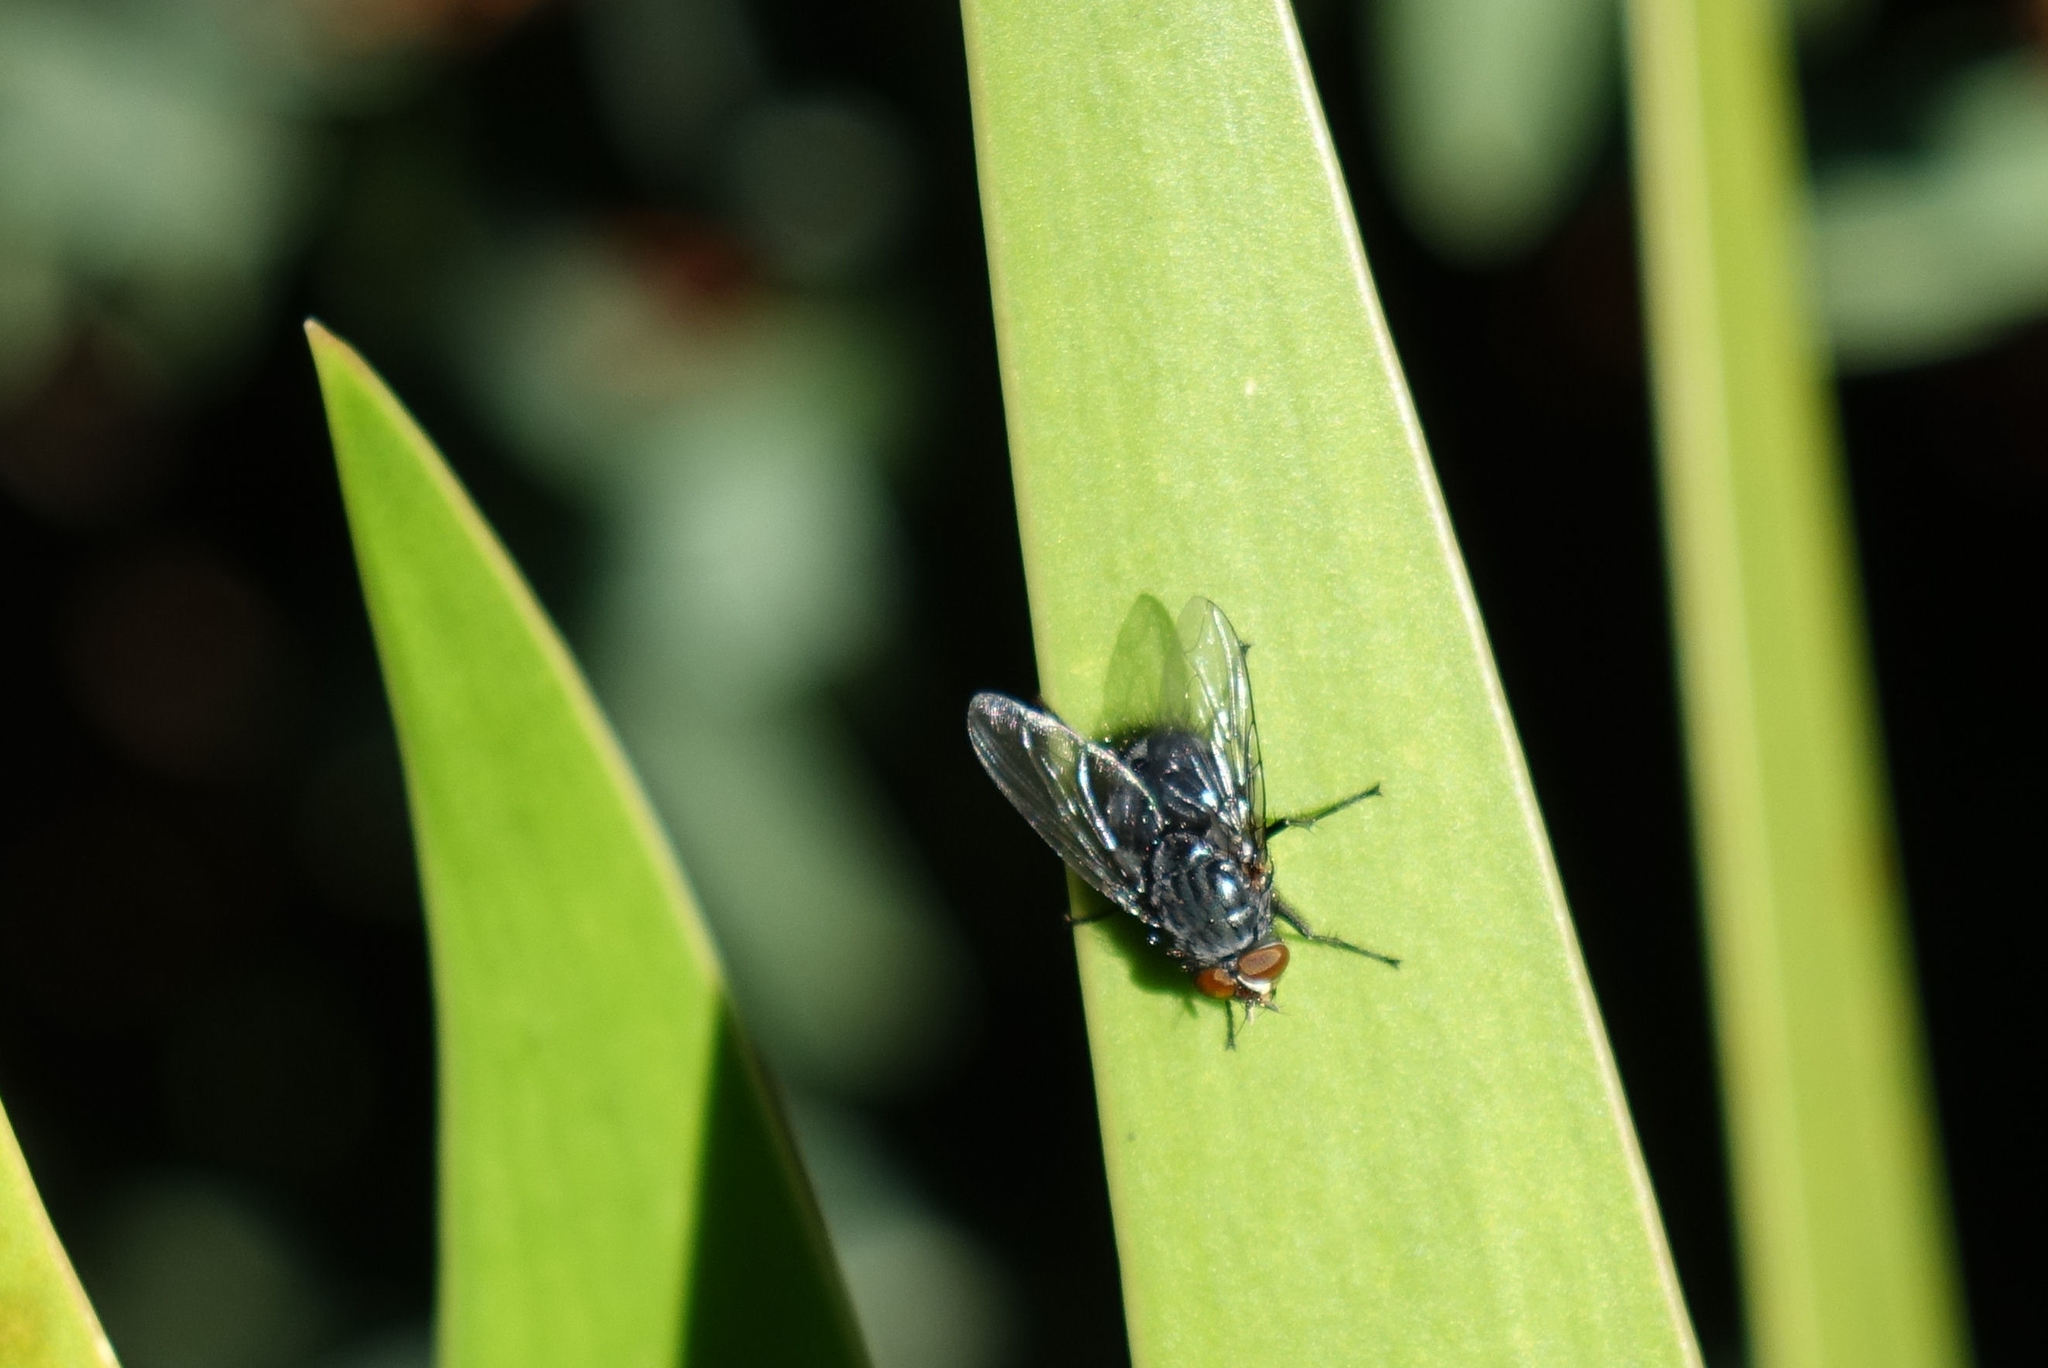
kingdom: Animalia
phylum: Arthropoda
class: Insecta
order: Diptera
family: Calliphoridae
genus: Calliphora
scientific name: Calliphora vicina
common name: Common blow flie
